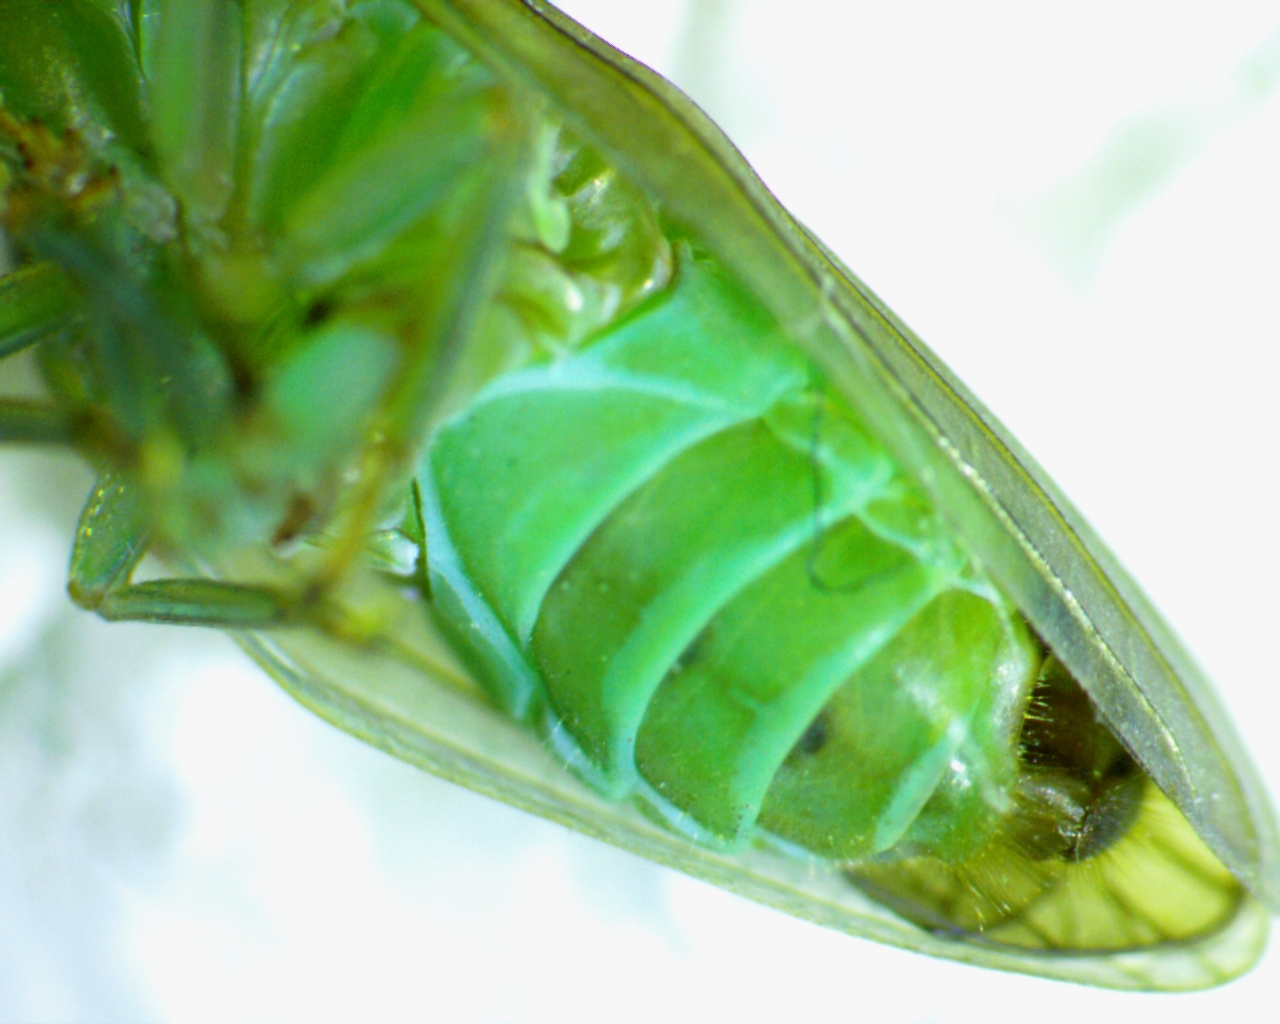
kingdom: Animalia
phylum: Arthropoda
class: Insecta
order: Hemiptera
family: Issidae
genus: Aplos
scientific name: Aplos simplex
